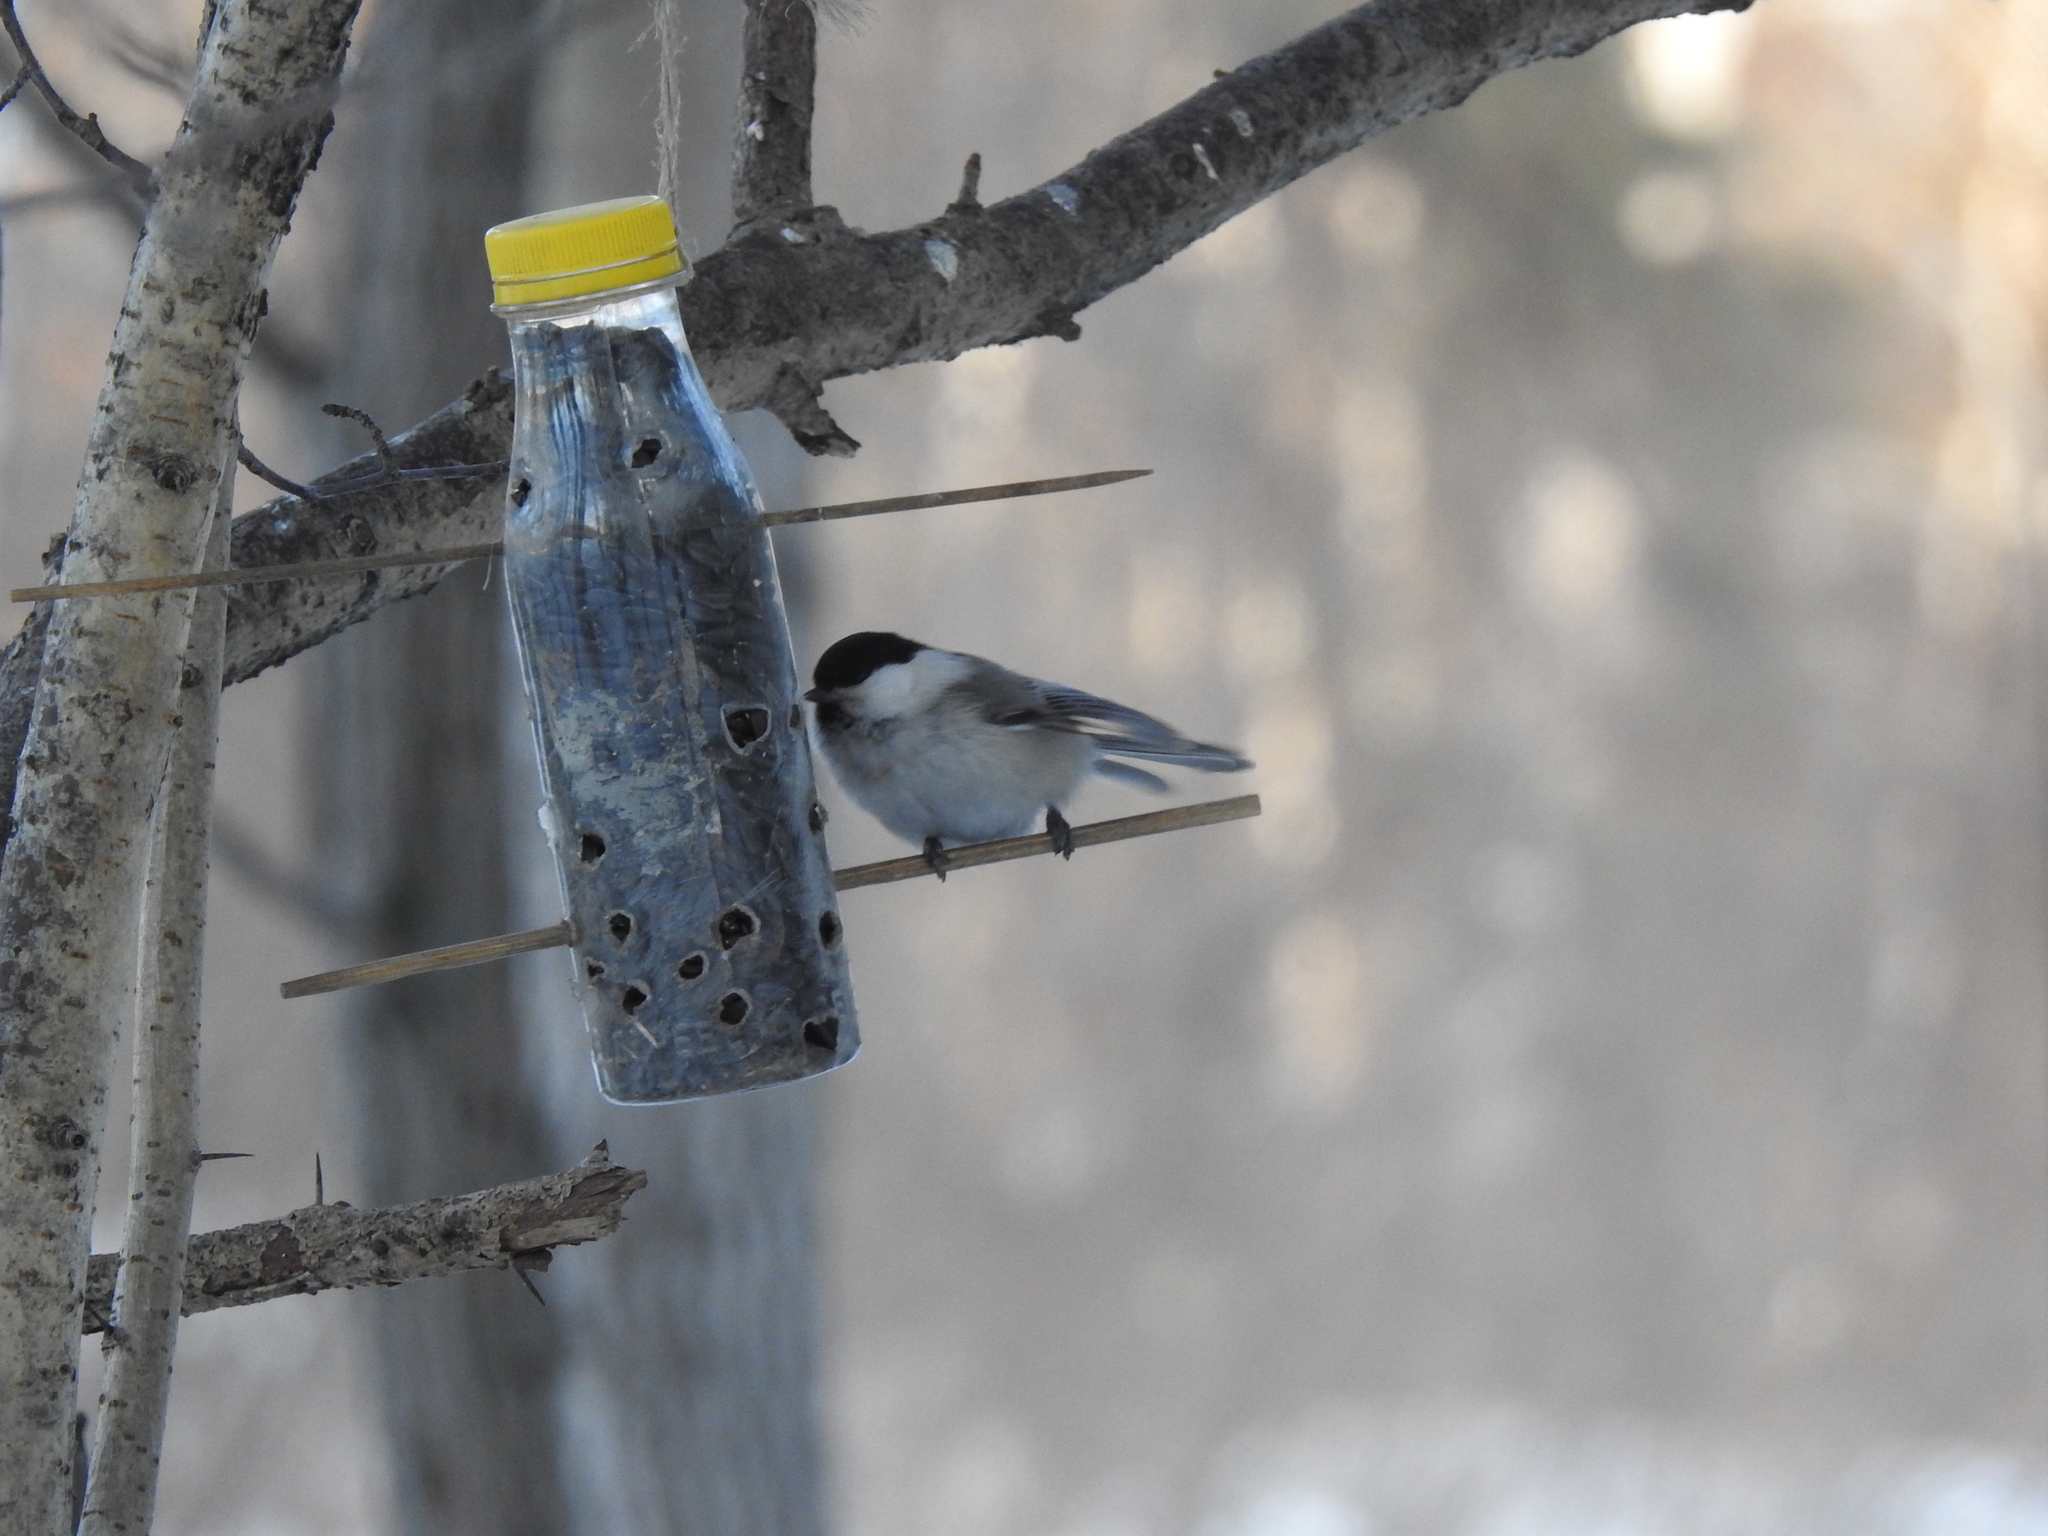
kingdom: Animalia
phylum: Chordata
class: Aves
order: Passeriformes
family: Paridae
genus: Poecile
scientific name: Poecile montanus
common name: Willow tit
